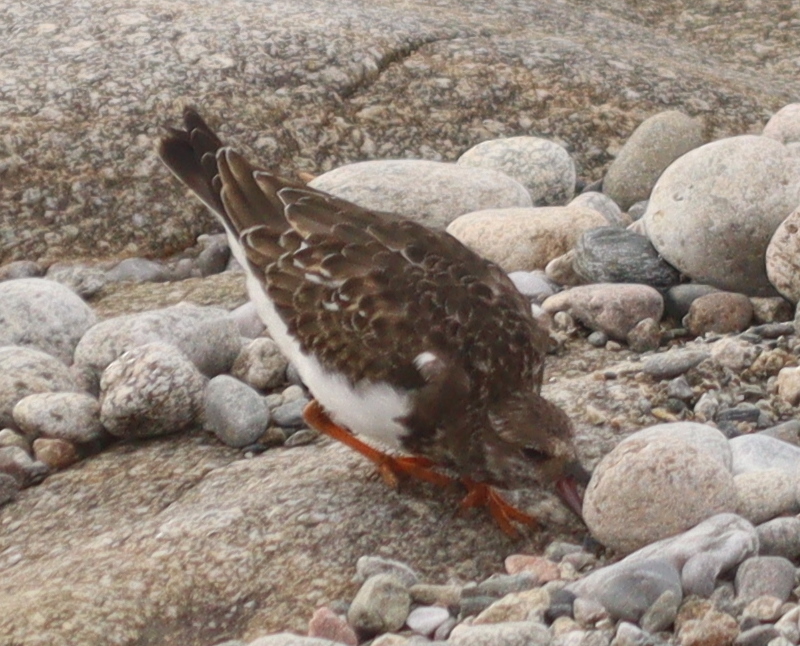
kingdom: Animalia
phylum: Chordata
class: Aves
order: Charadriiformes
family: Scolopacidae
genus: Arenaria
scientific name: Arenaria interpres
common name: Ruddy turnstone
